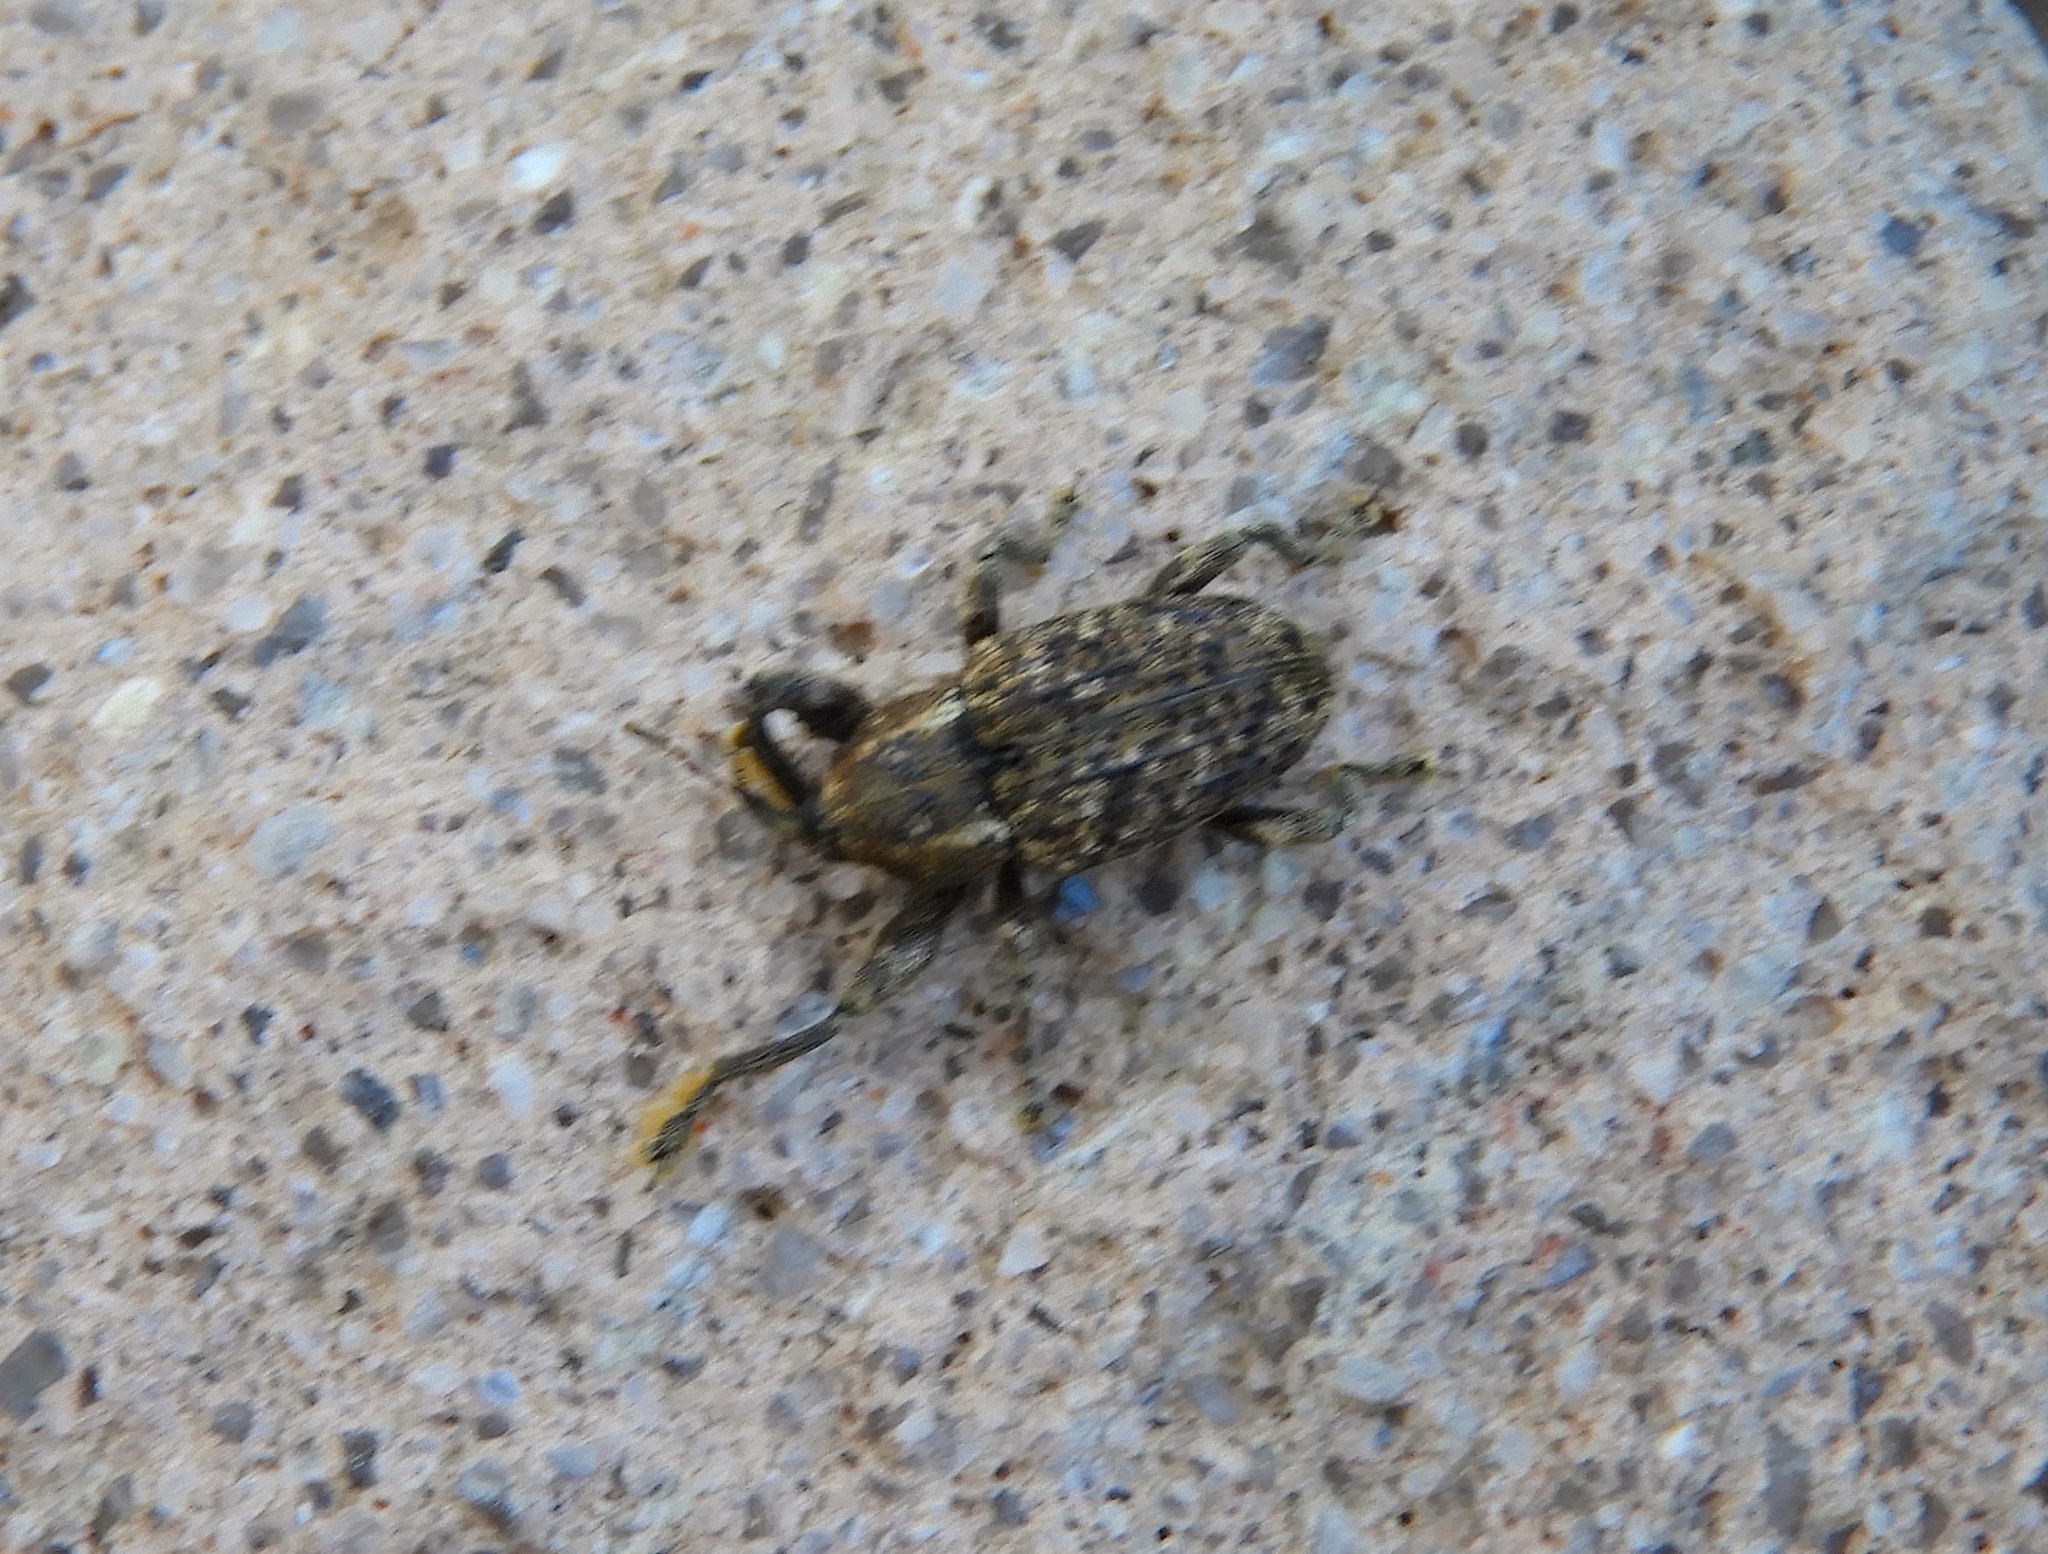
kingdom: Animalia
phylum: Arthropoda
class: Insecta
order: Coleoptera
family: Curculionidae
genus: Coelosternus
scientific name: Coelosternus consputus
